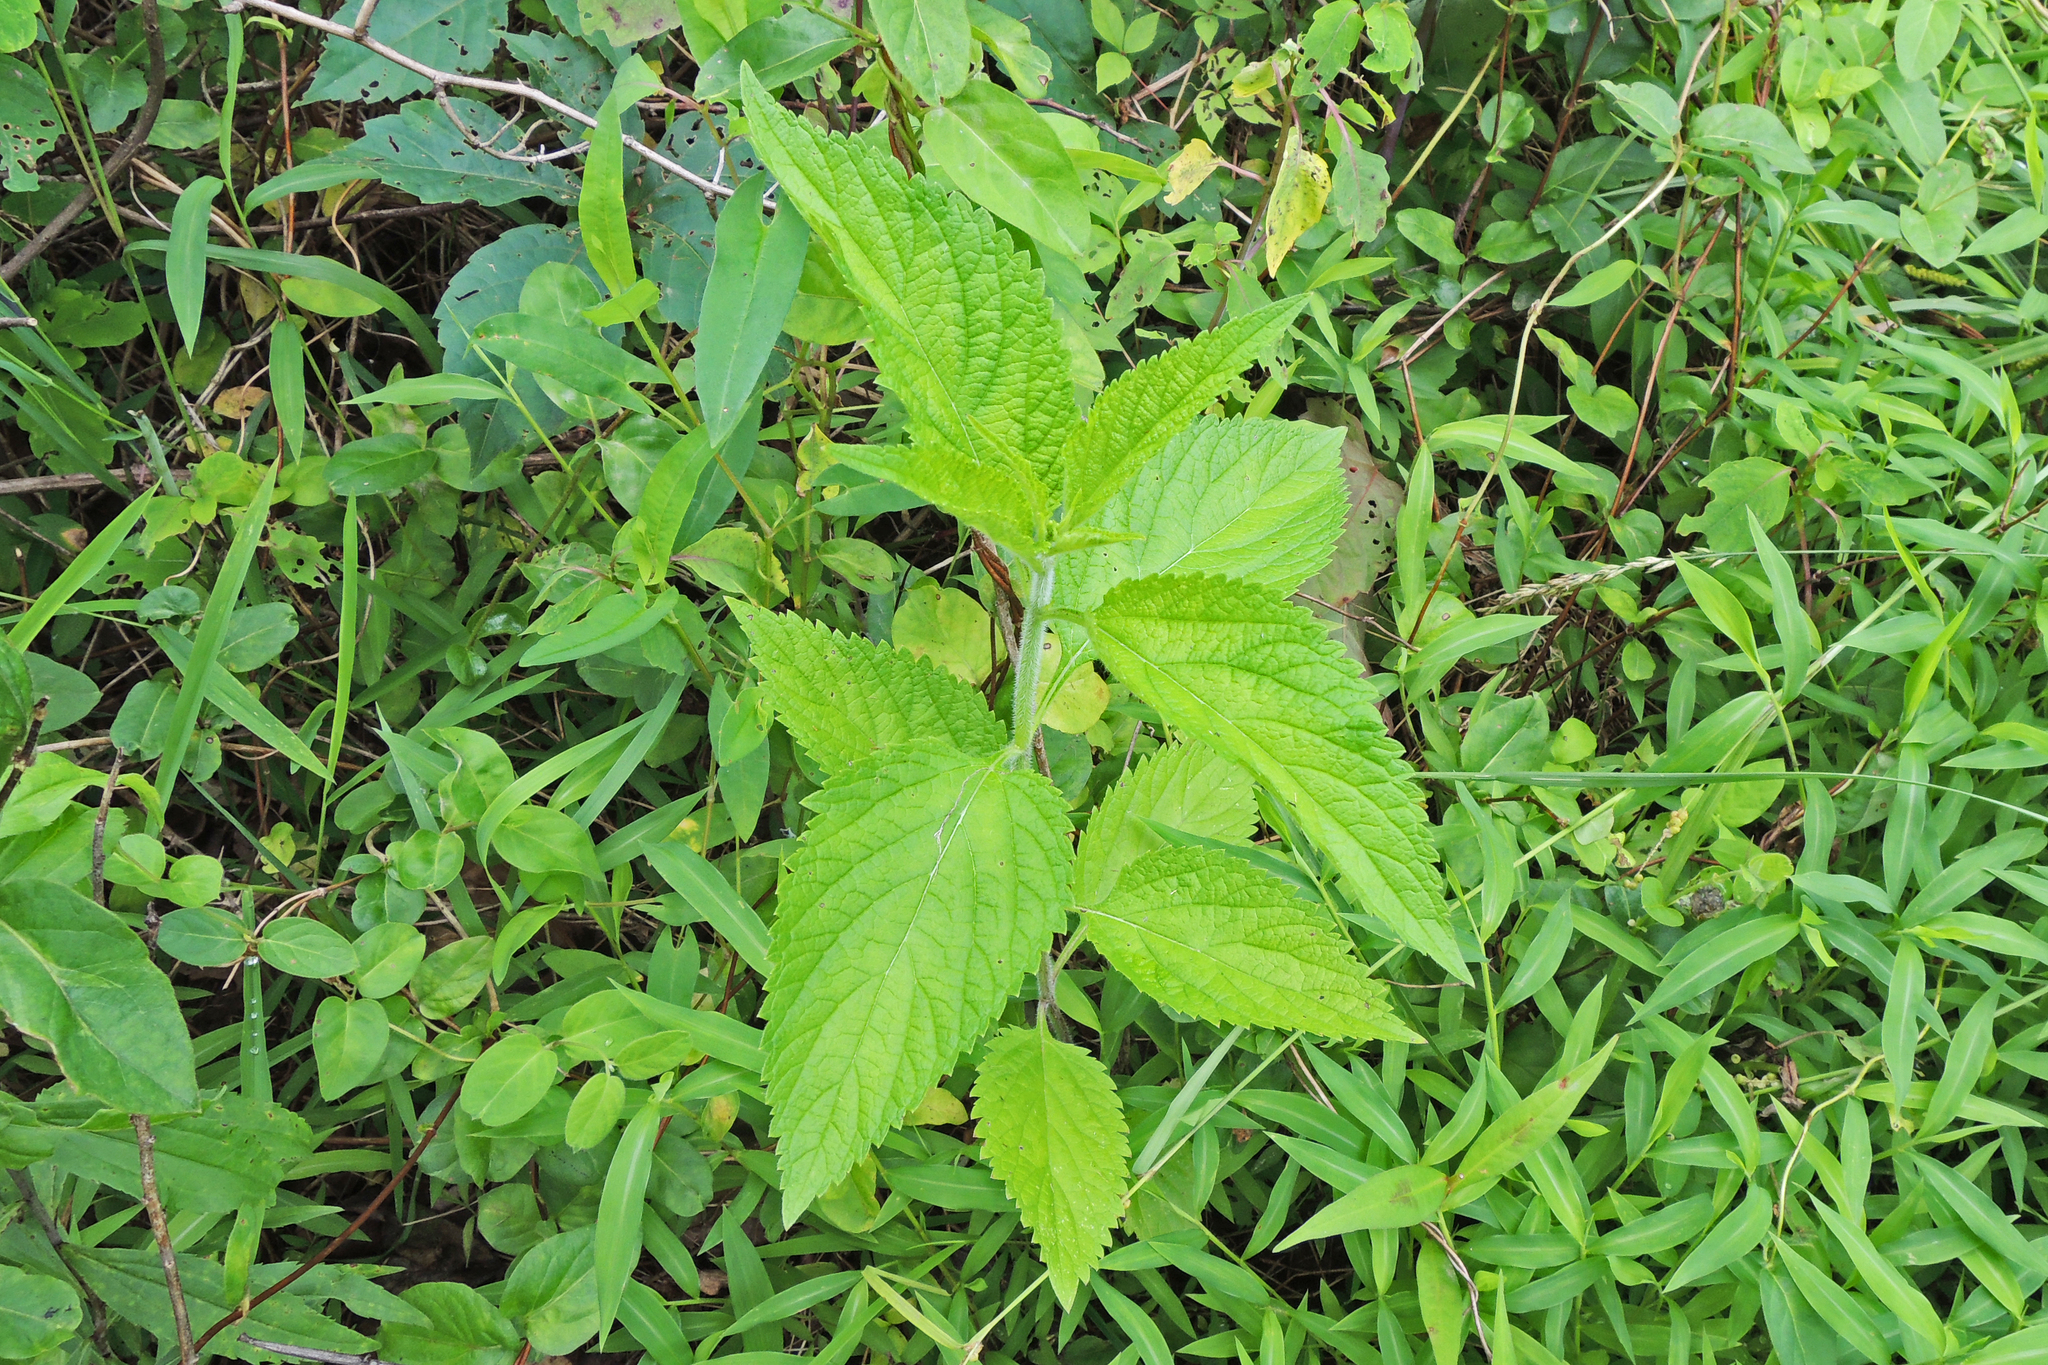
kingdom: Plantae
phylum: Tracheophyta
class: Magnoliopsida
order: Lamiales
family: Verbenaceae
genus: Verbena
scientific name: Verbena urticifolia
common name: Nettle-leaved vervain
